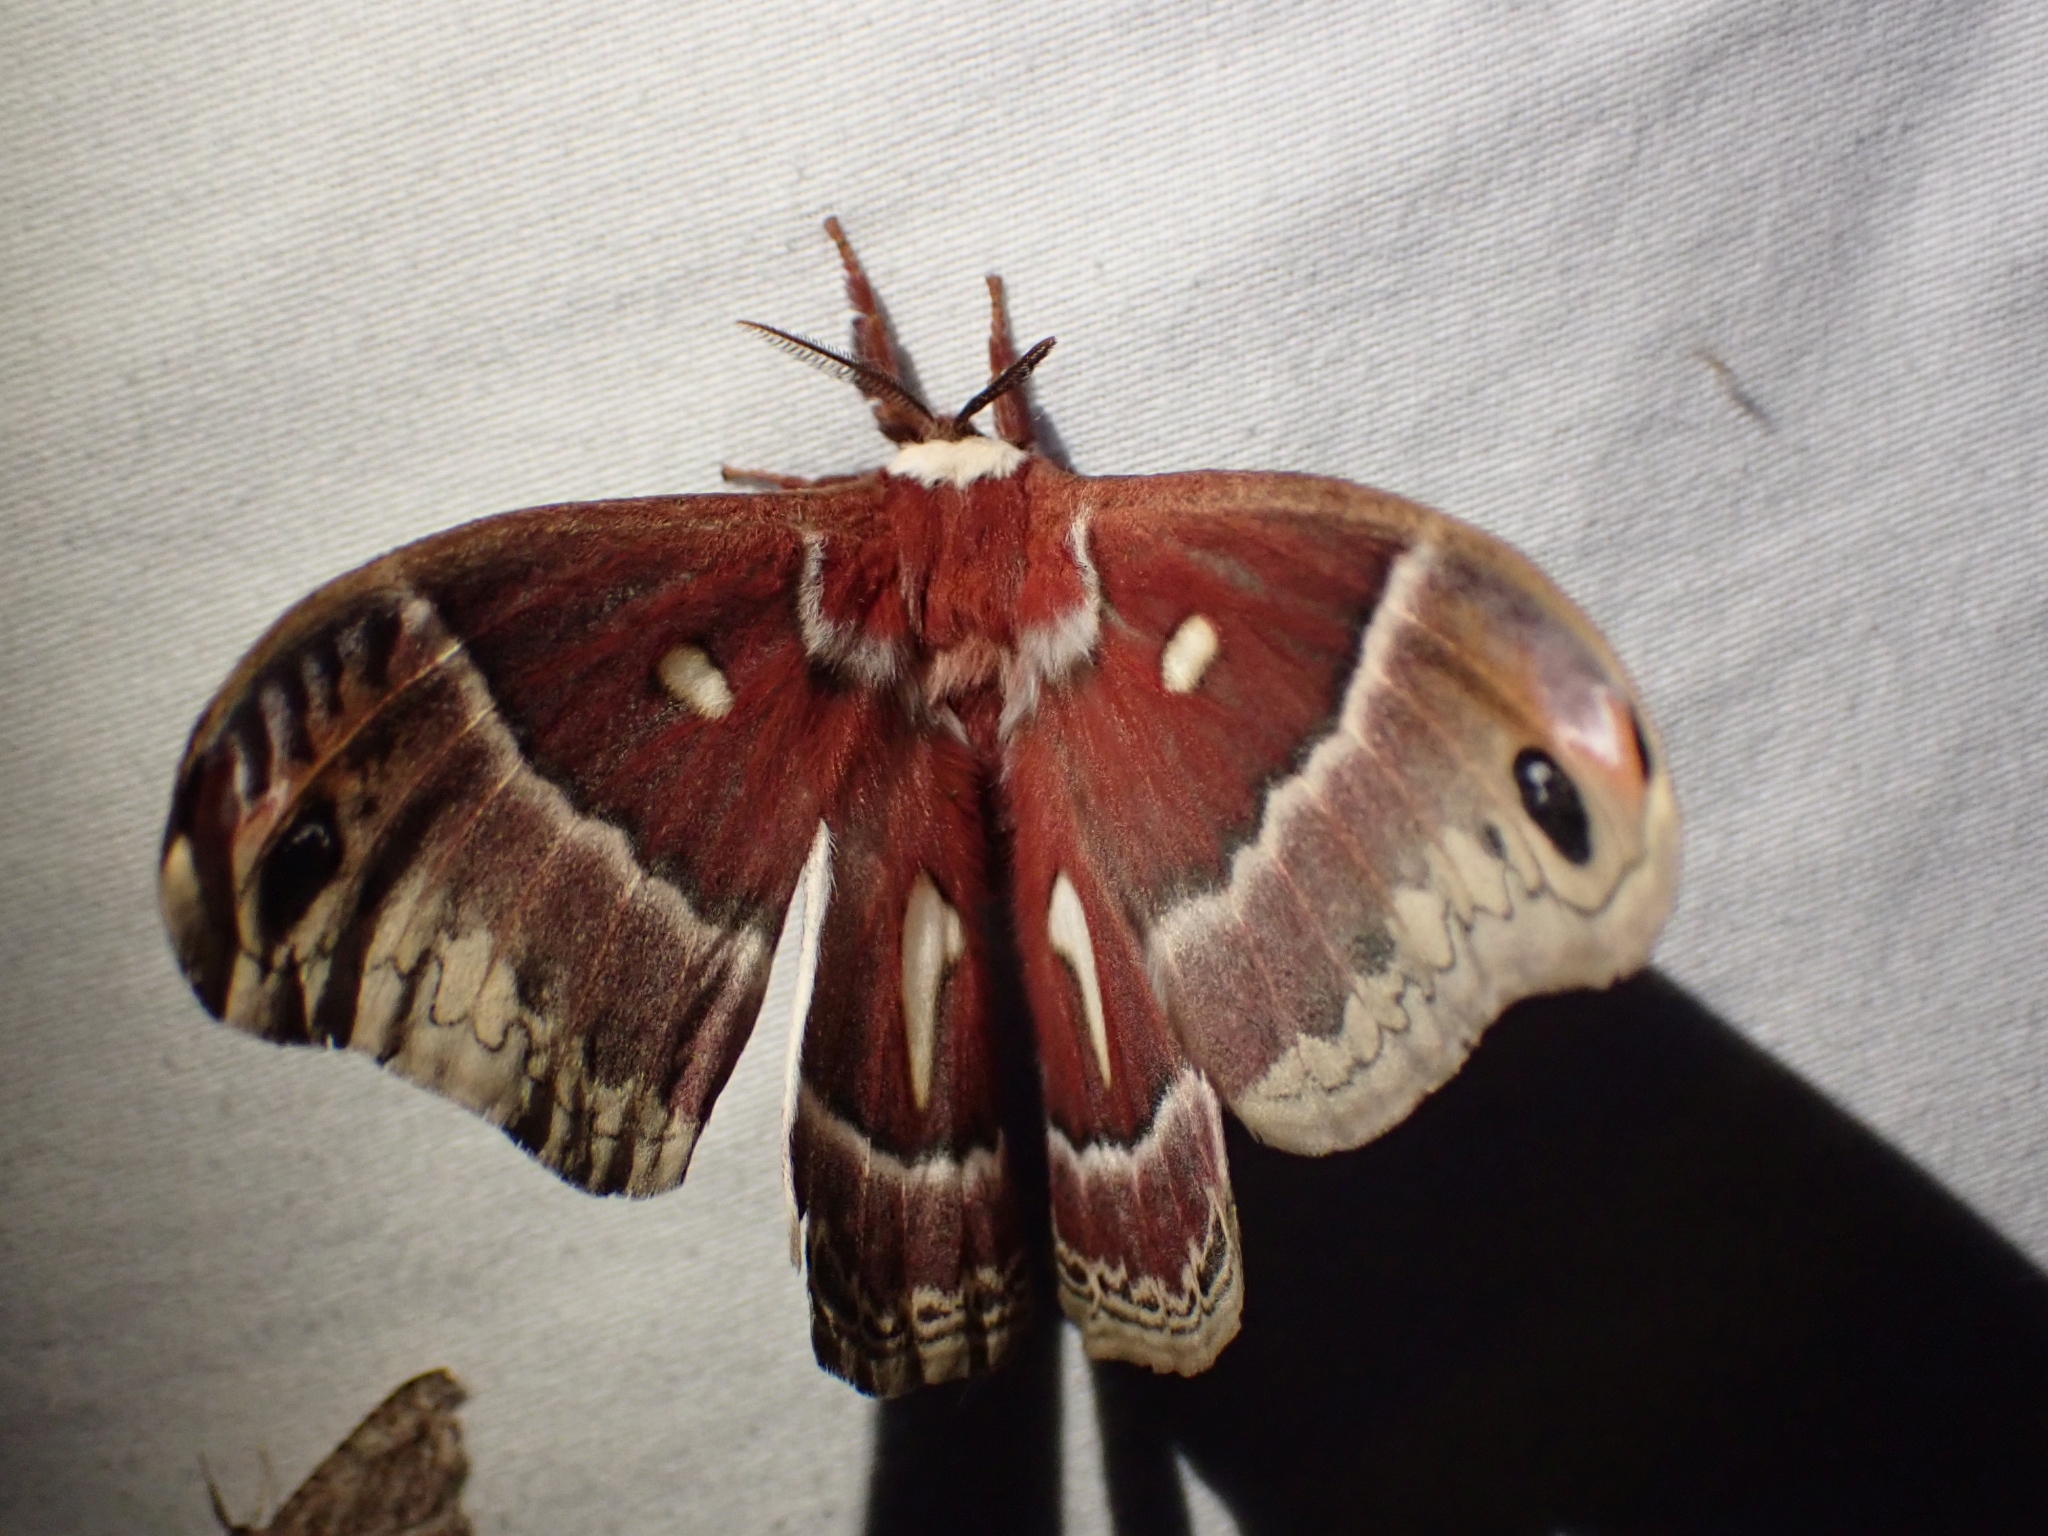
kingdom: Animalia
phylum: Arthropoda
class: Insecta
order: Lepidoptera
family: Saturniidae
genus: Hyalophora
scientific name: Hyalophora euryalus
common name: Ceanothus silkmoth
